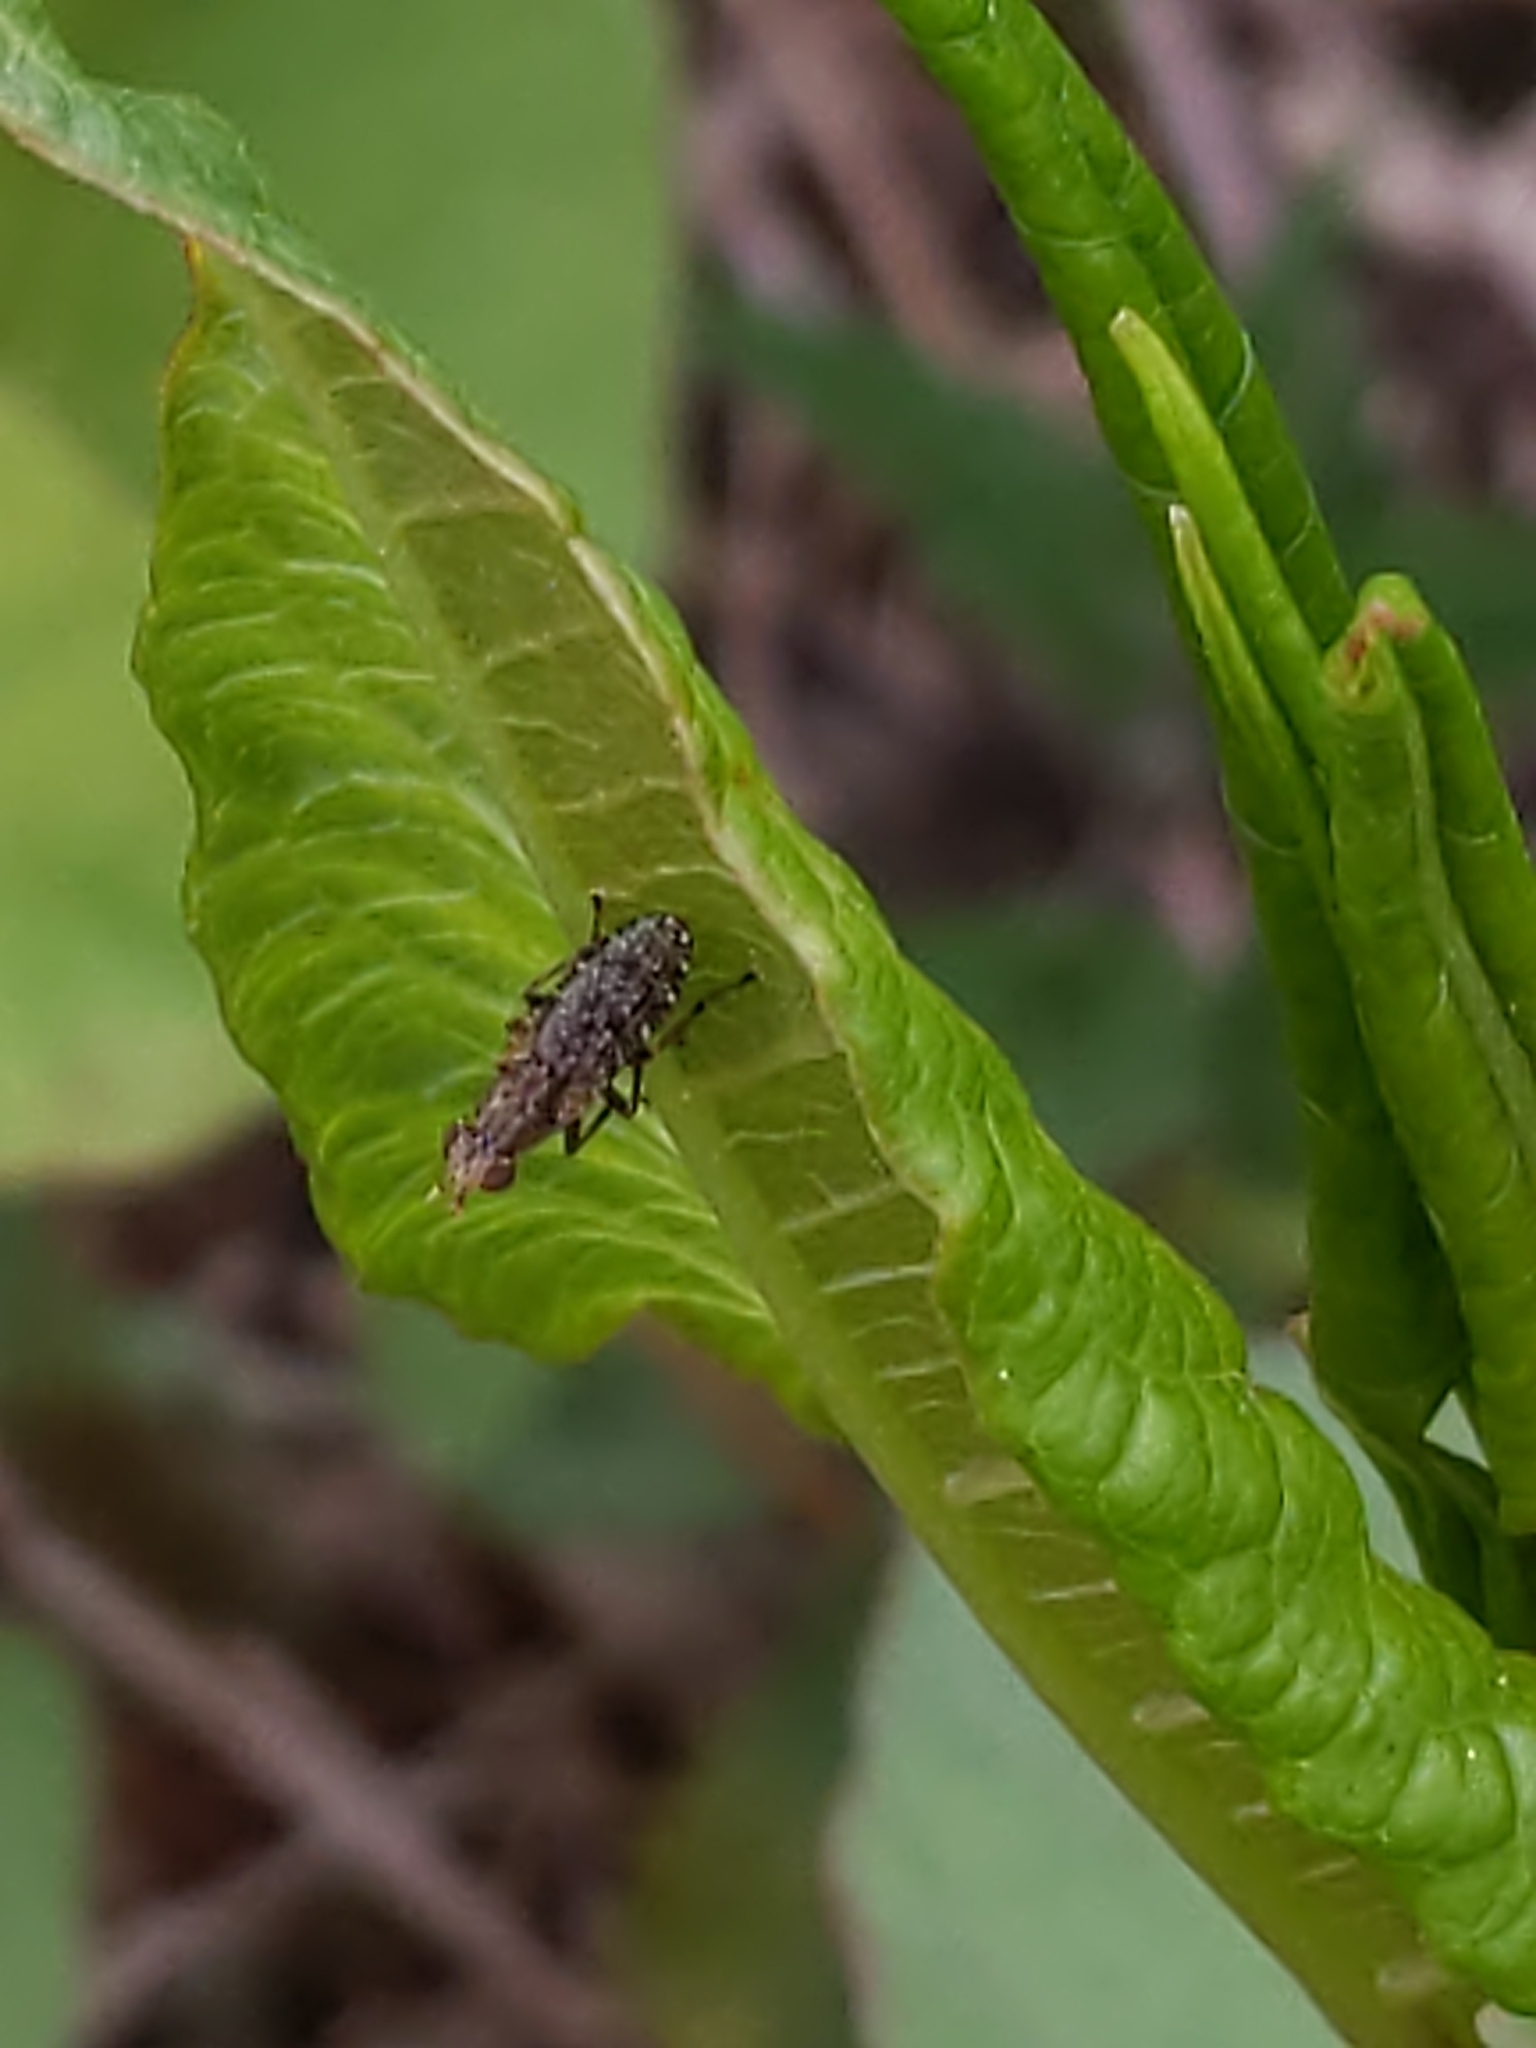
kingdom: Animalia
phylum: Arthropoda
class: Insecta
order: Diptera
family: Sciomyzidae
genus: Dictya
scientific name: Dictya
